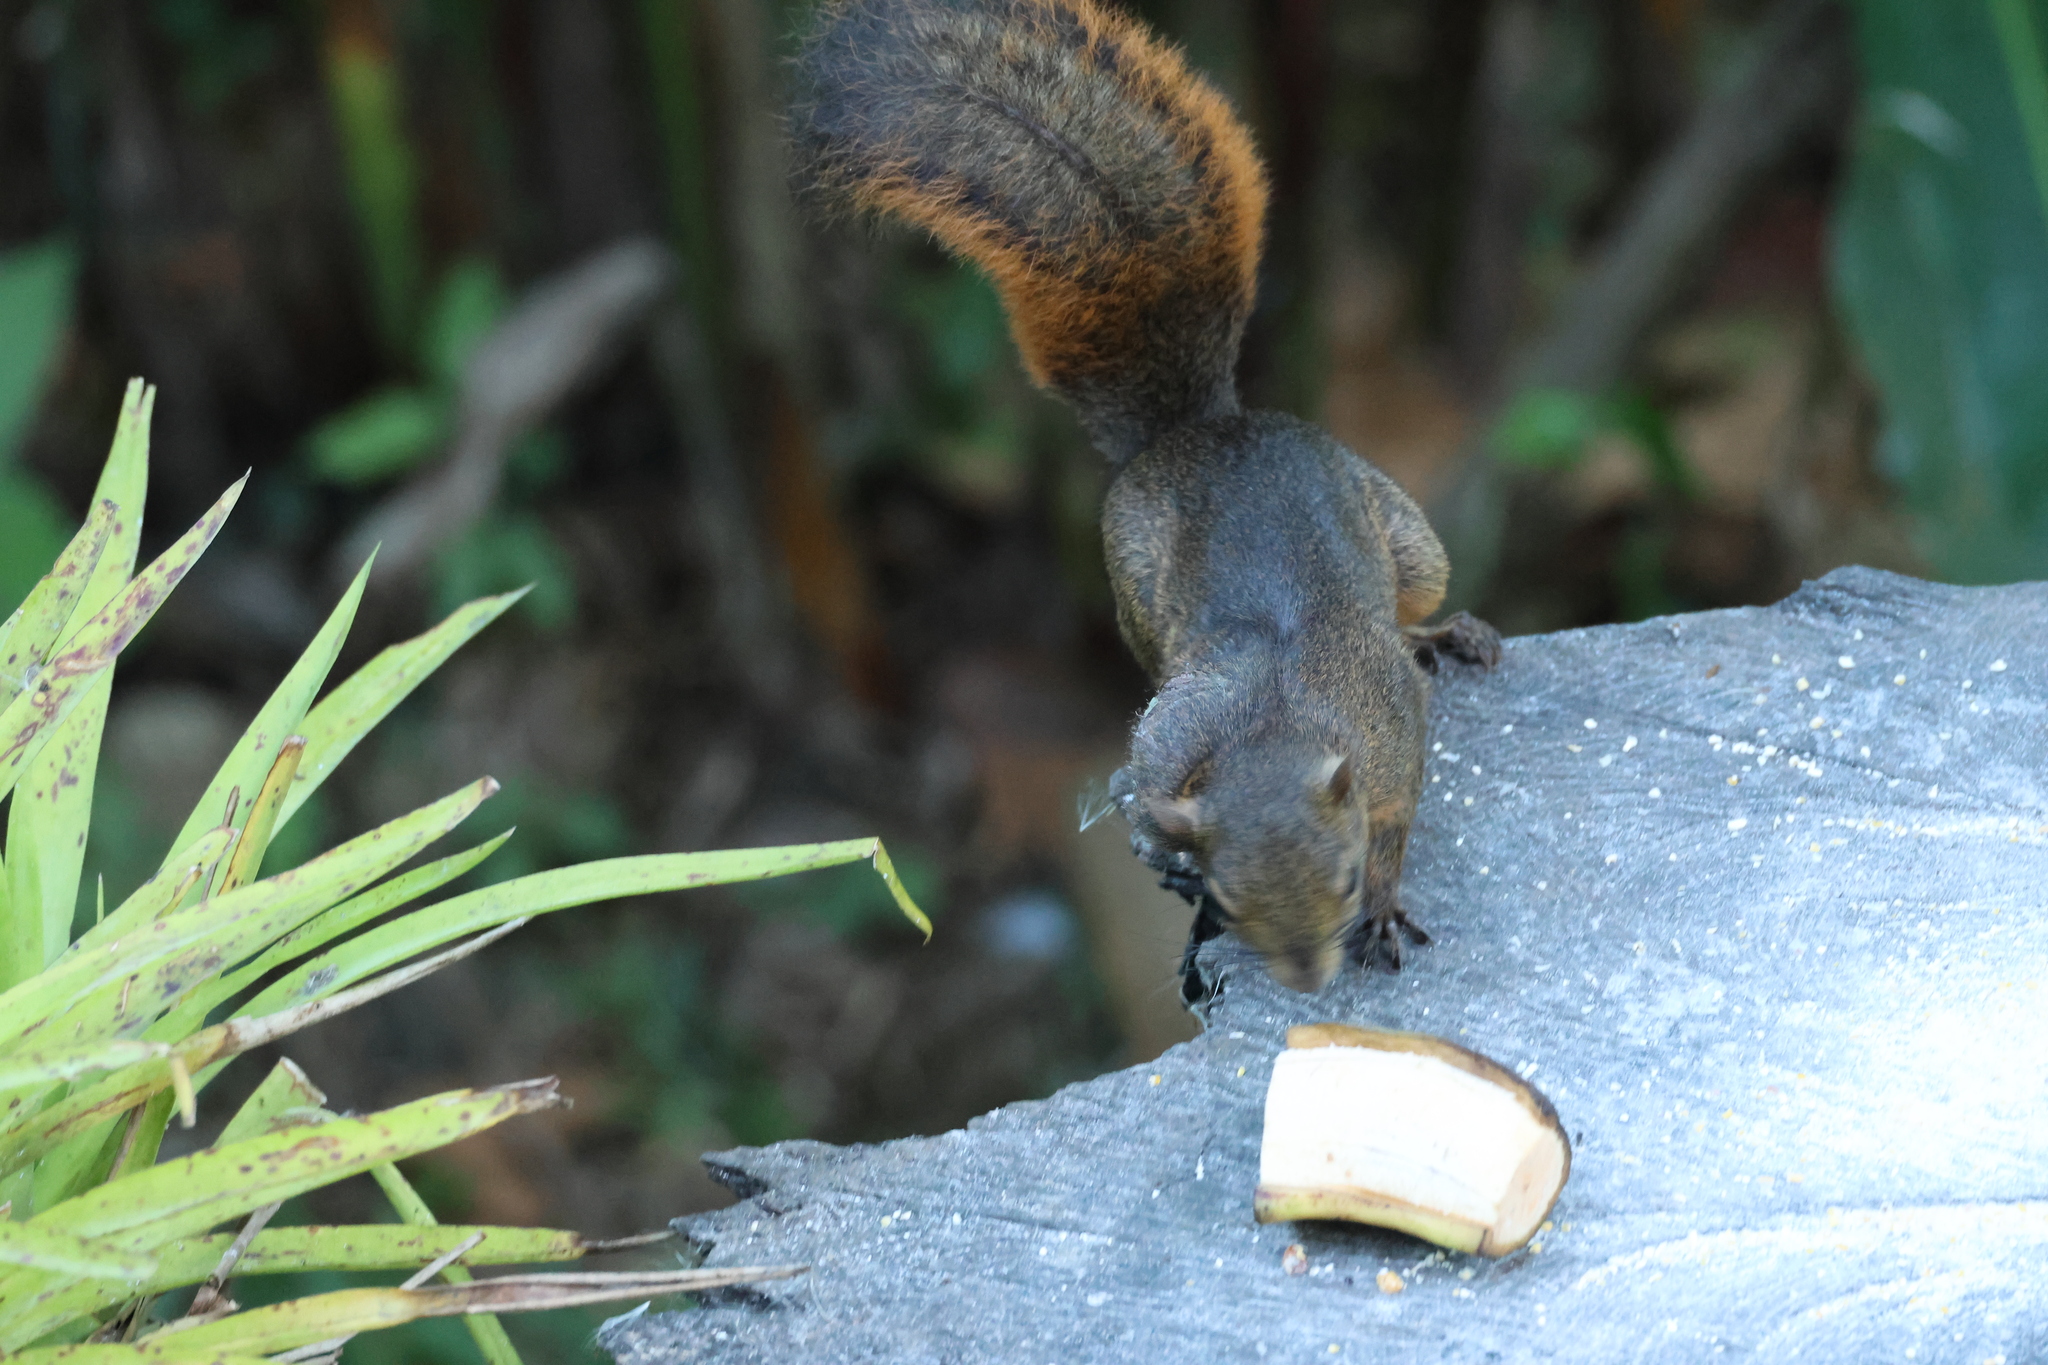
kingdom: Animalia
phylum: Chordata
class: Mammalia
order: Rodentia
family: Sciuridae
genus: Sciurus
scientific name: Sciurus granatensis
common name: Red-tailed squirrel
